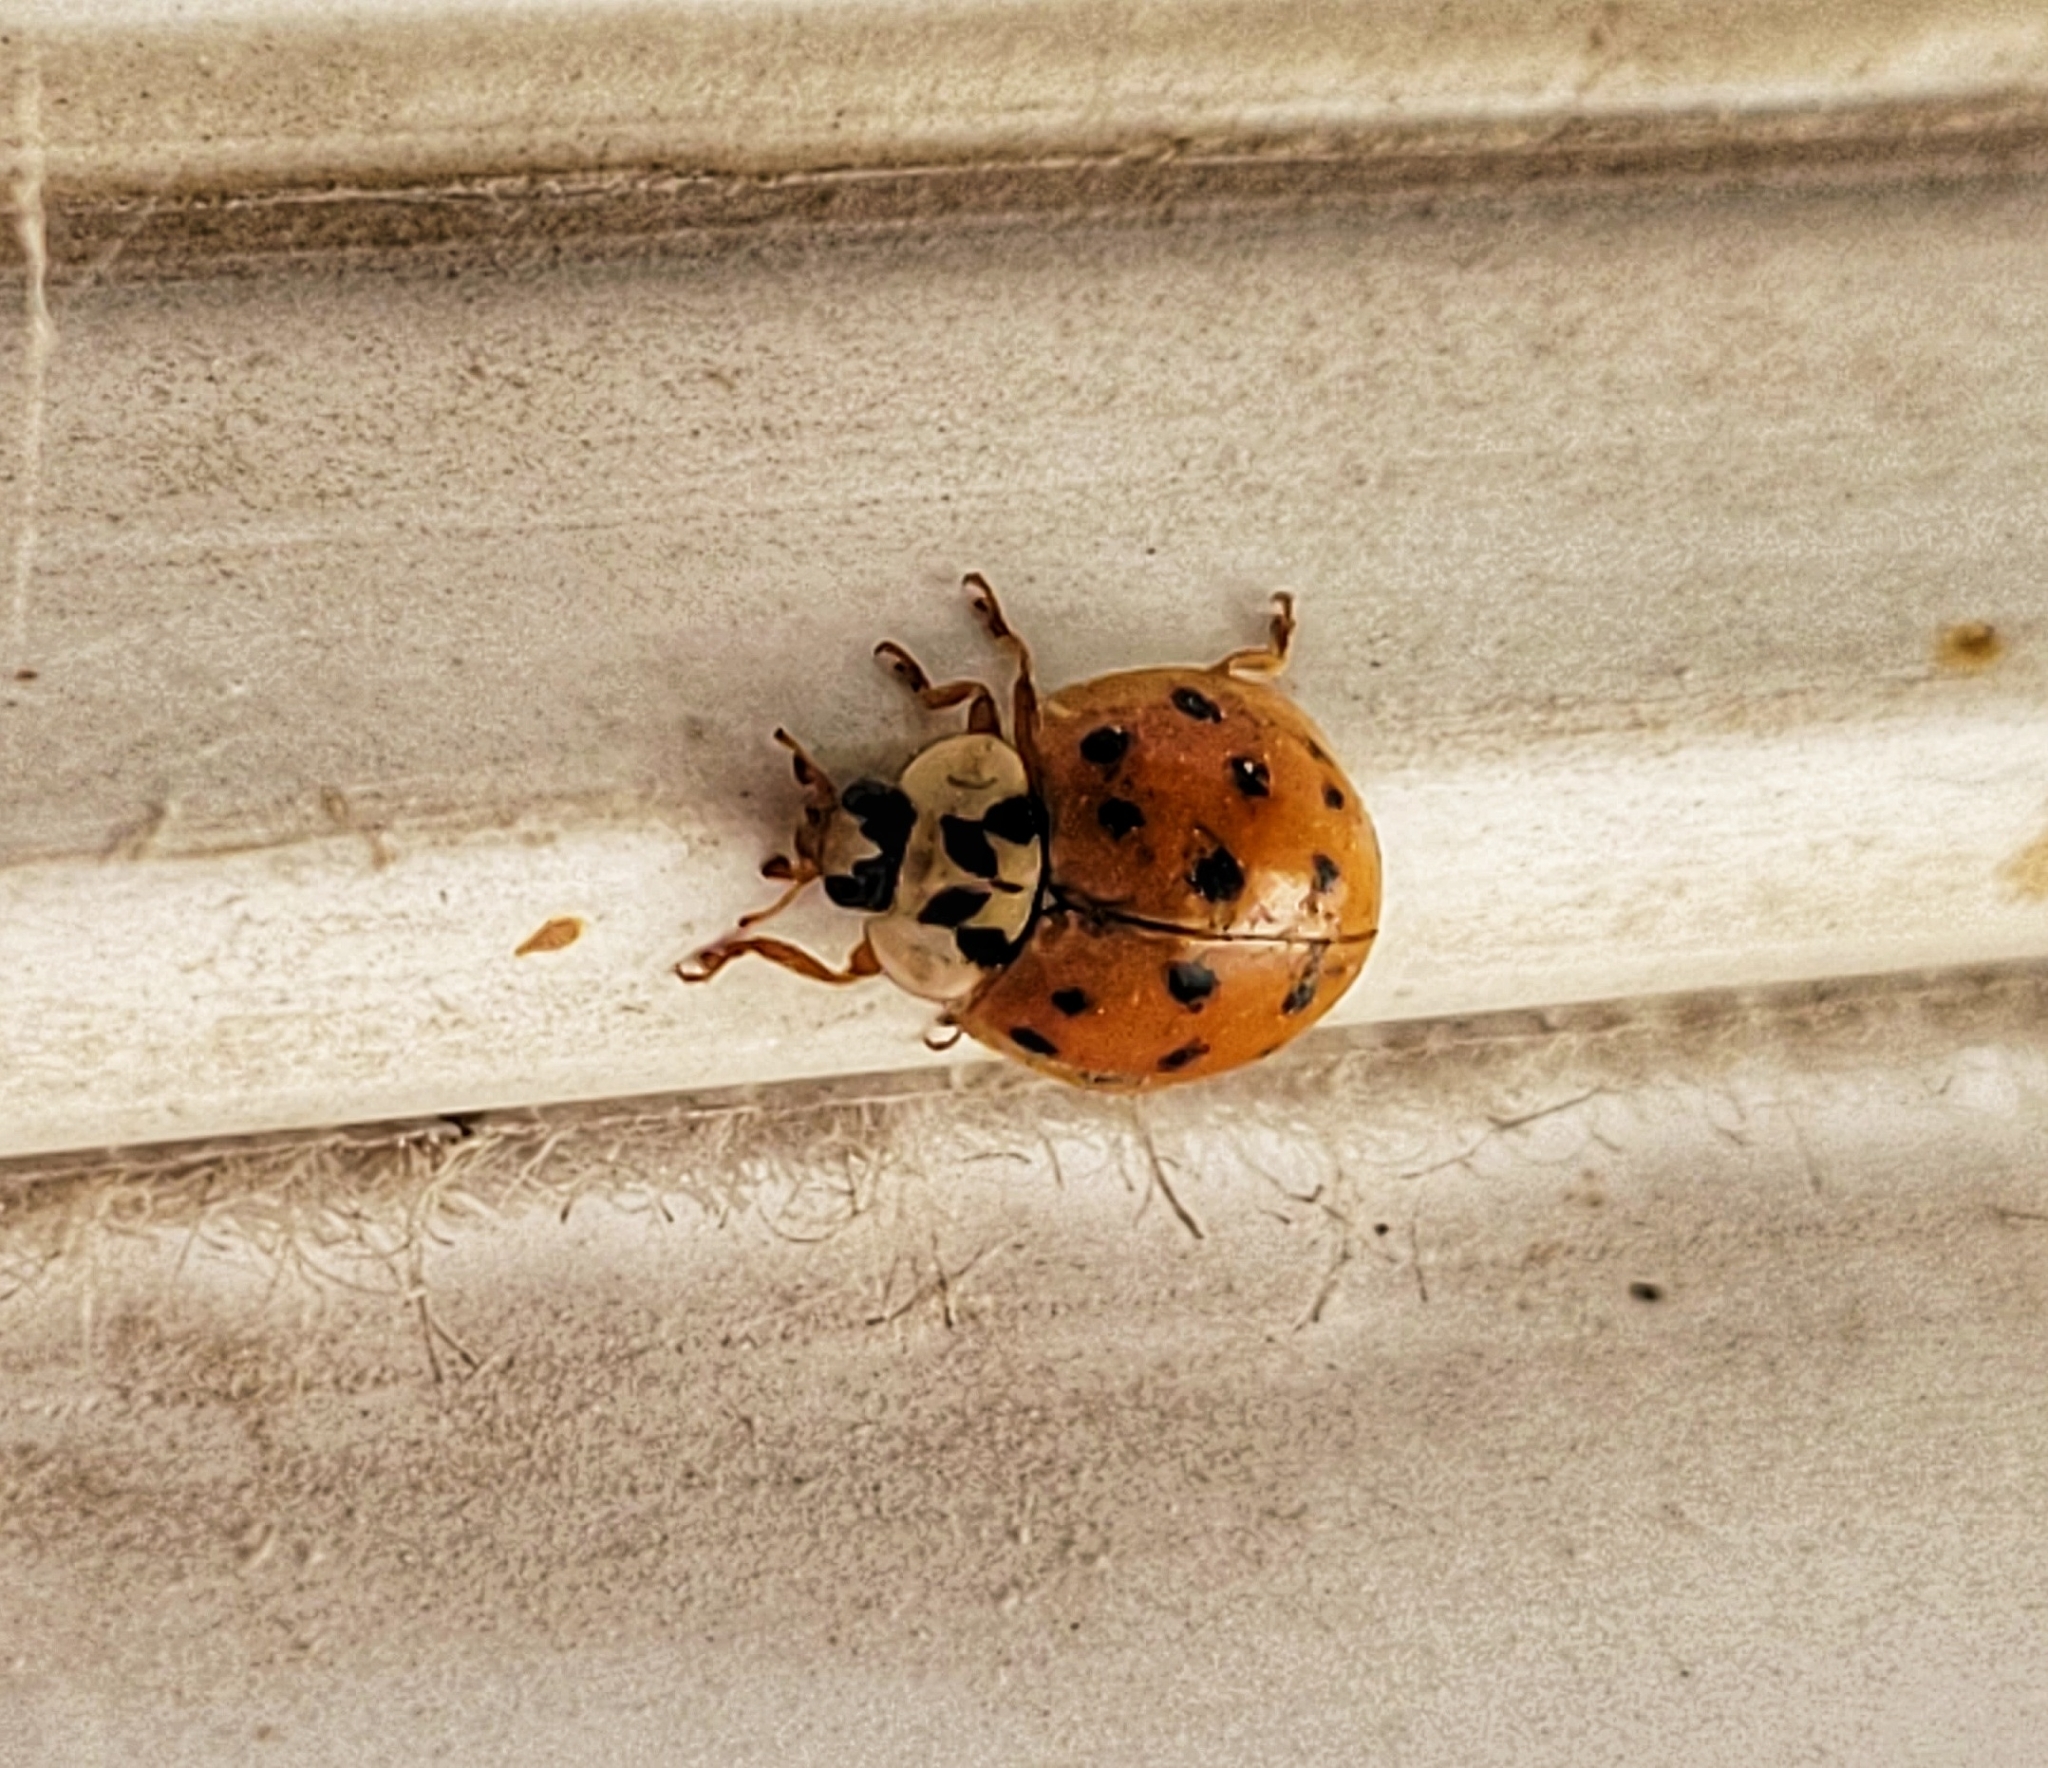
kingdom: Animalia
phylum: Arthropoda
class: Insecta
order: Coleoptera
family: Coccinellidae
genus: Harmonia
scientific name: Harmonia axyridis
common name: Harlequin ladybird
